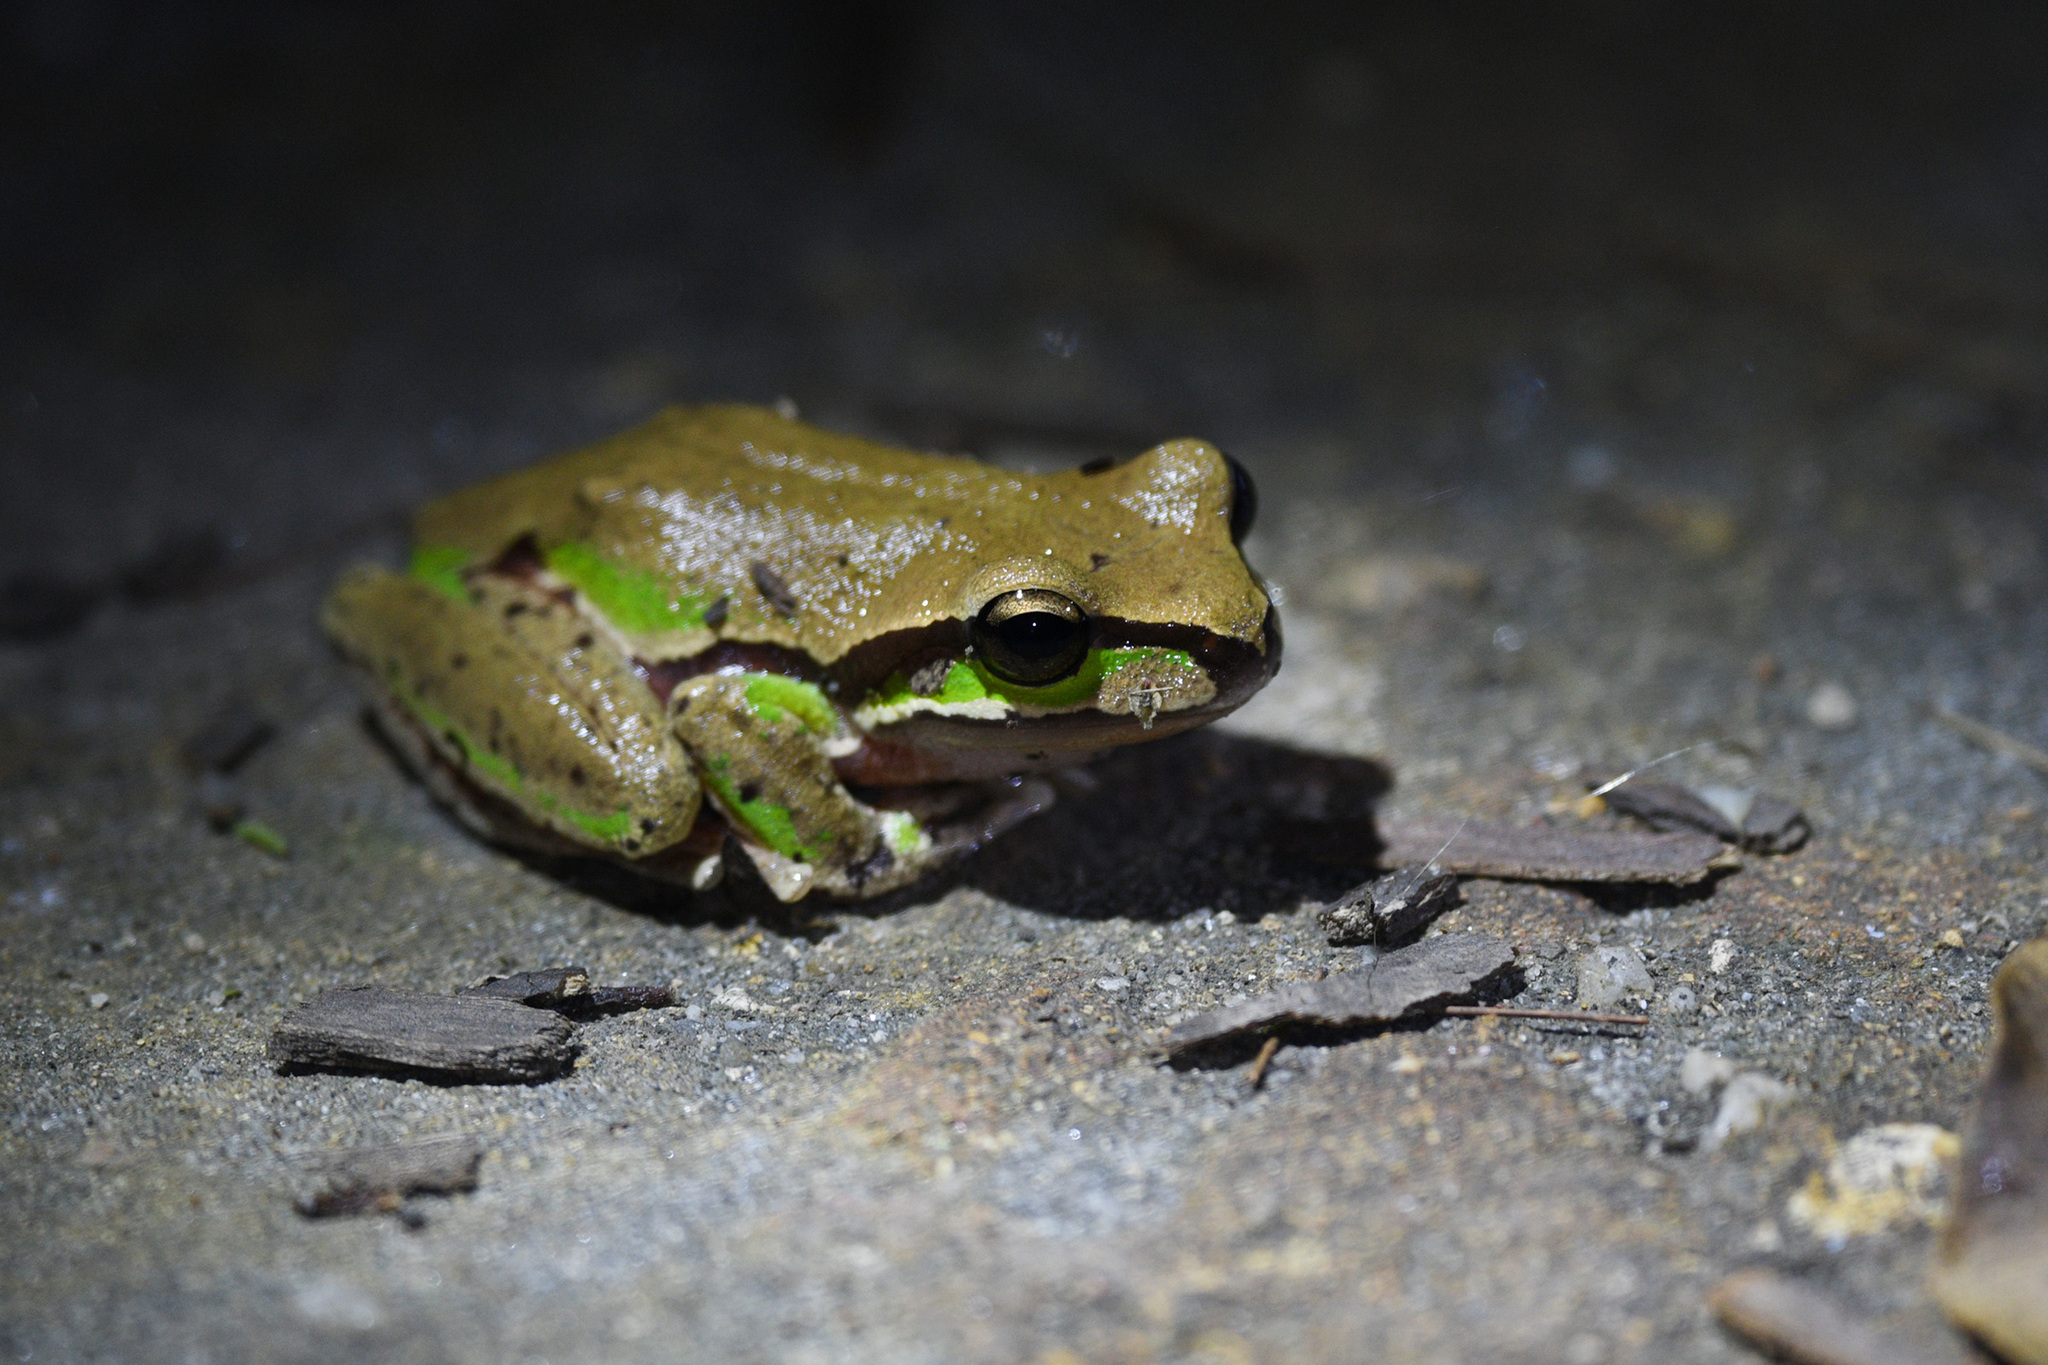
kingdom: Animalia
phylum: Chordata
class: Amphibia
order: Anura
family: Pelodryadidae
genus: Ranoidea
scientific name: Ranoidea citropa
